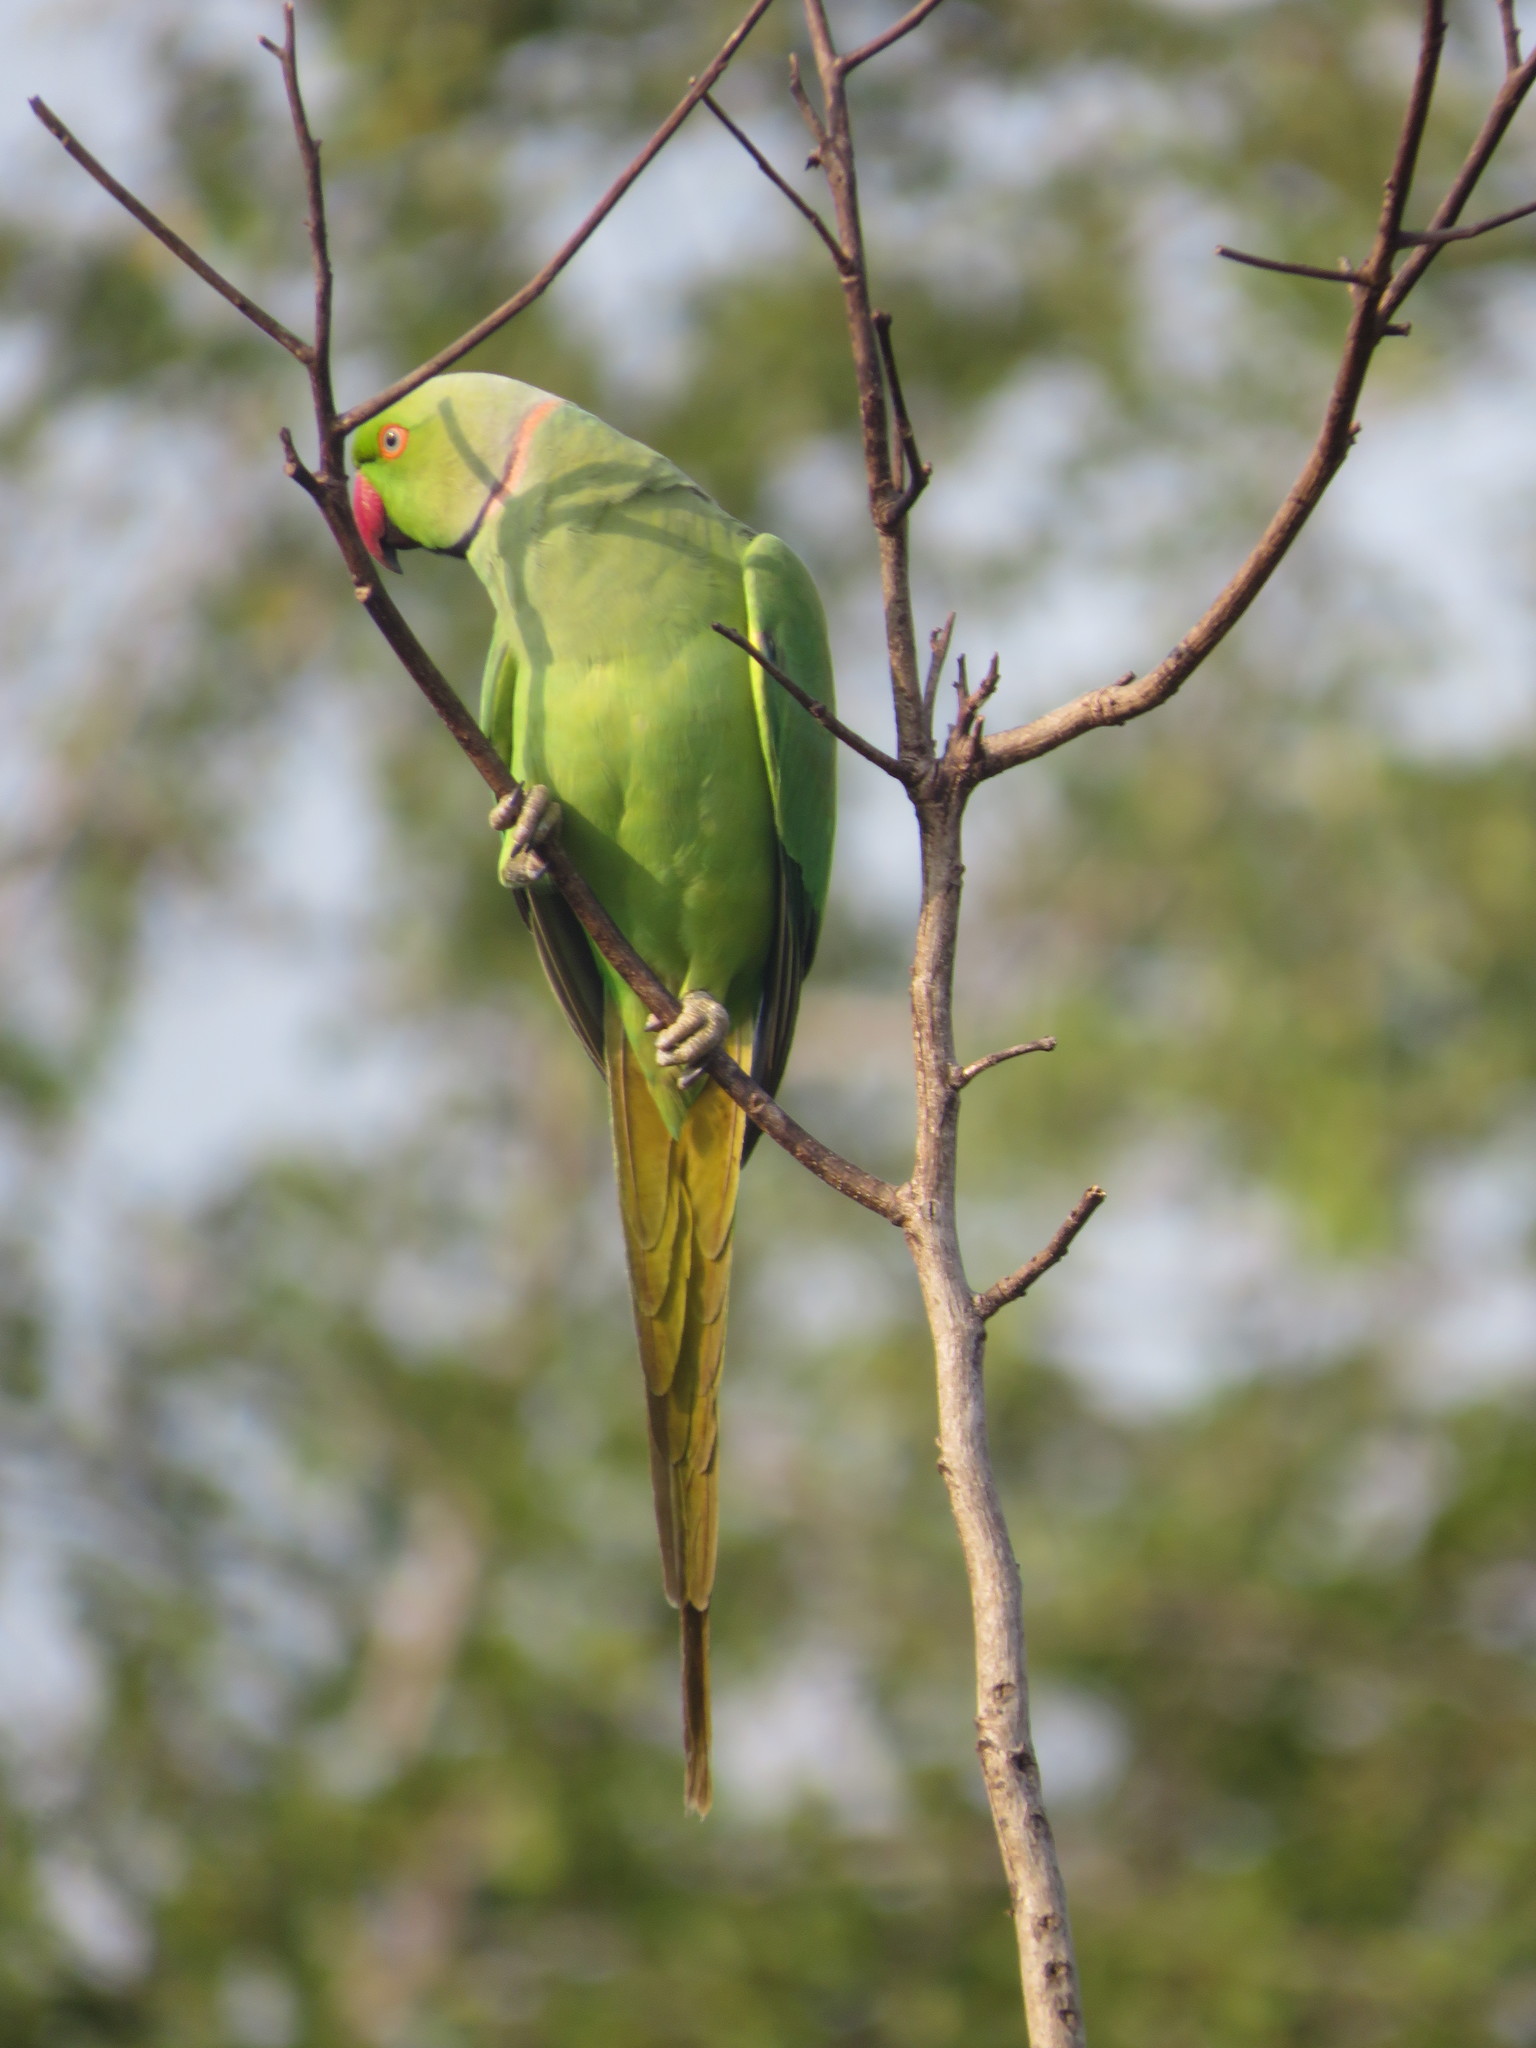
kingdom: Animalia
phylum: Chordata
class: Aves
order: Psittaciformes
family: Psittacidae
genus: Psittacula
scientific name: Psittacula krameri
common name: Rose-ringed parakeet
